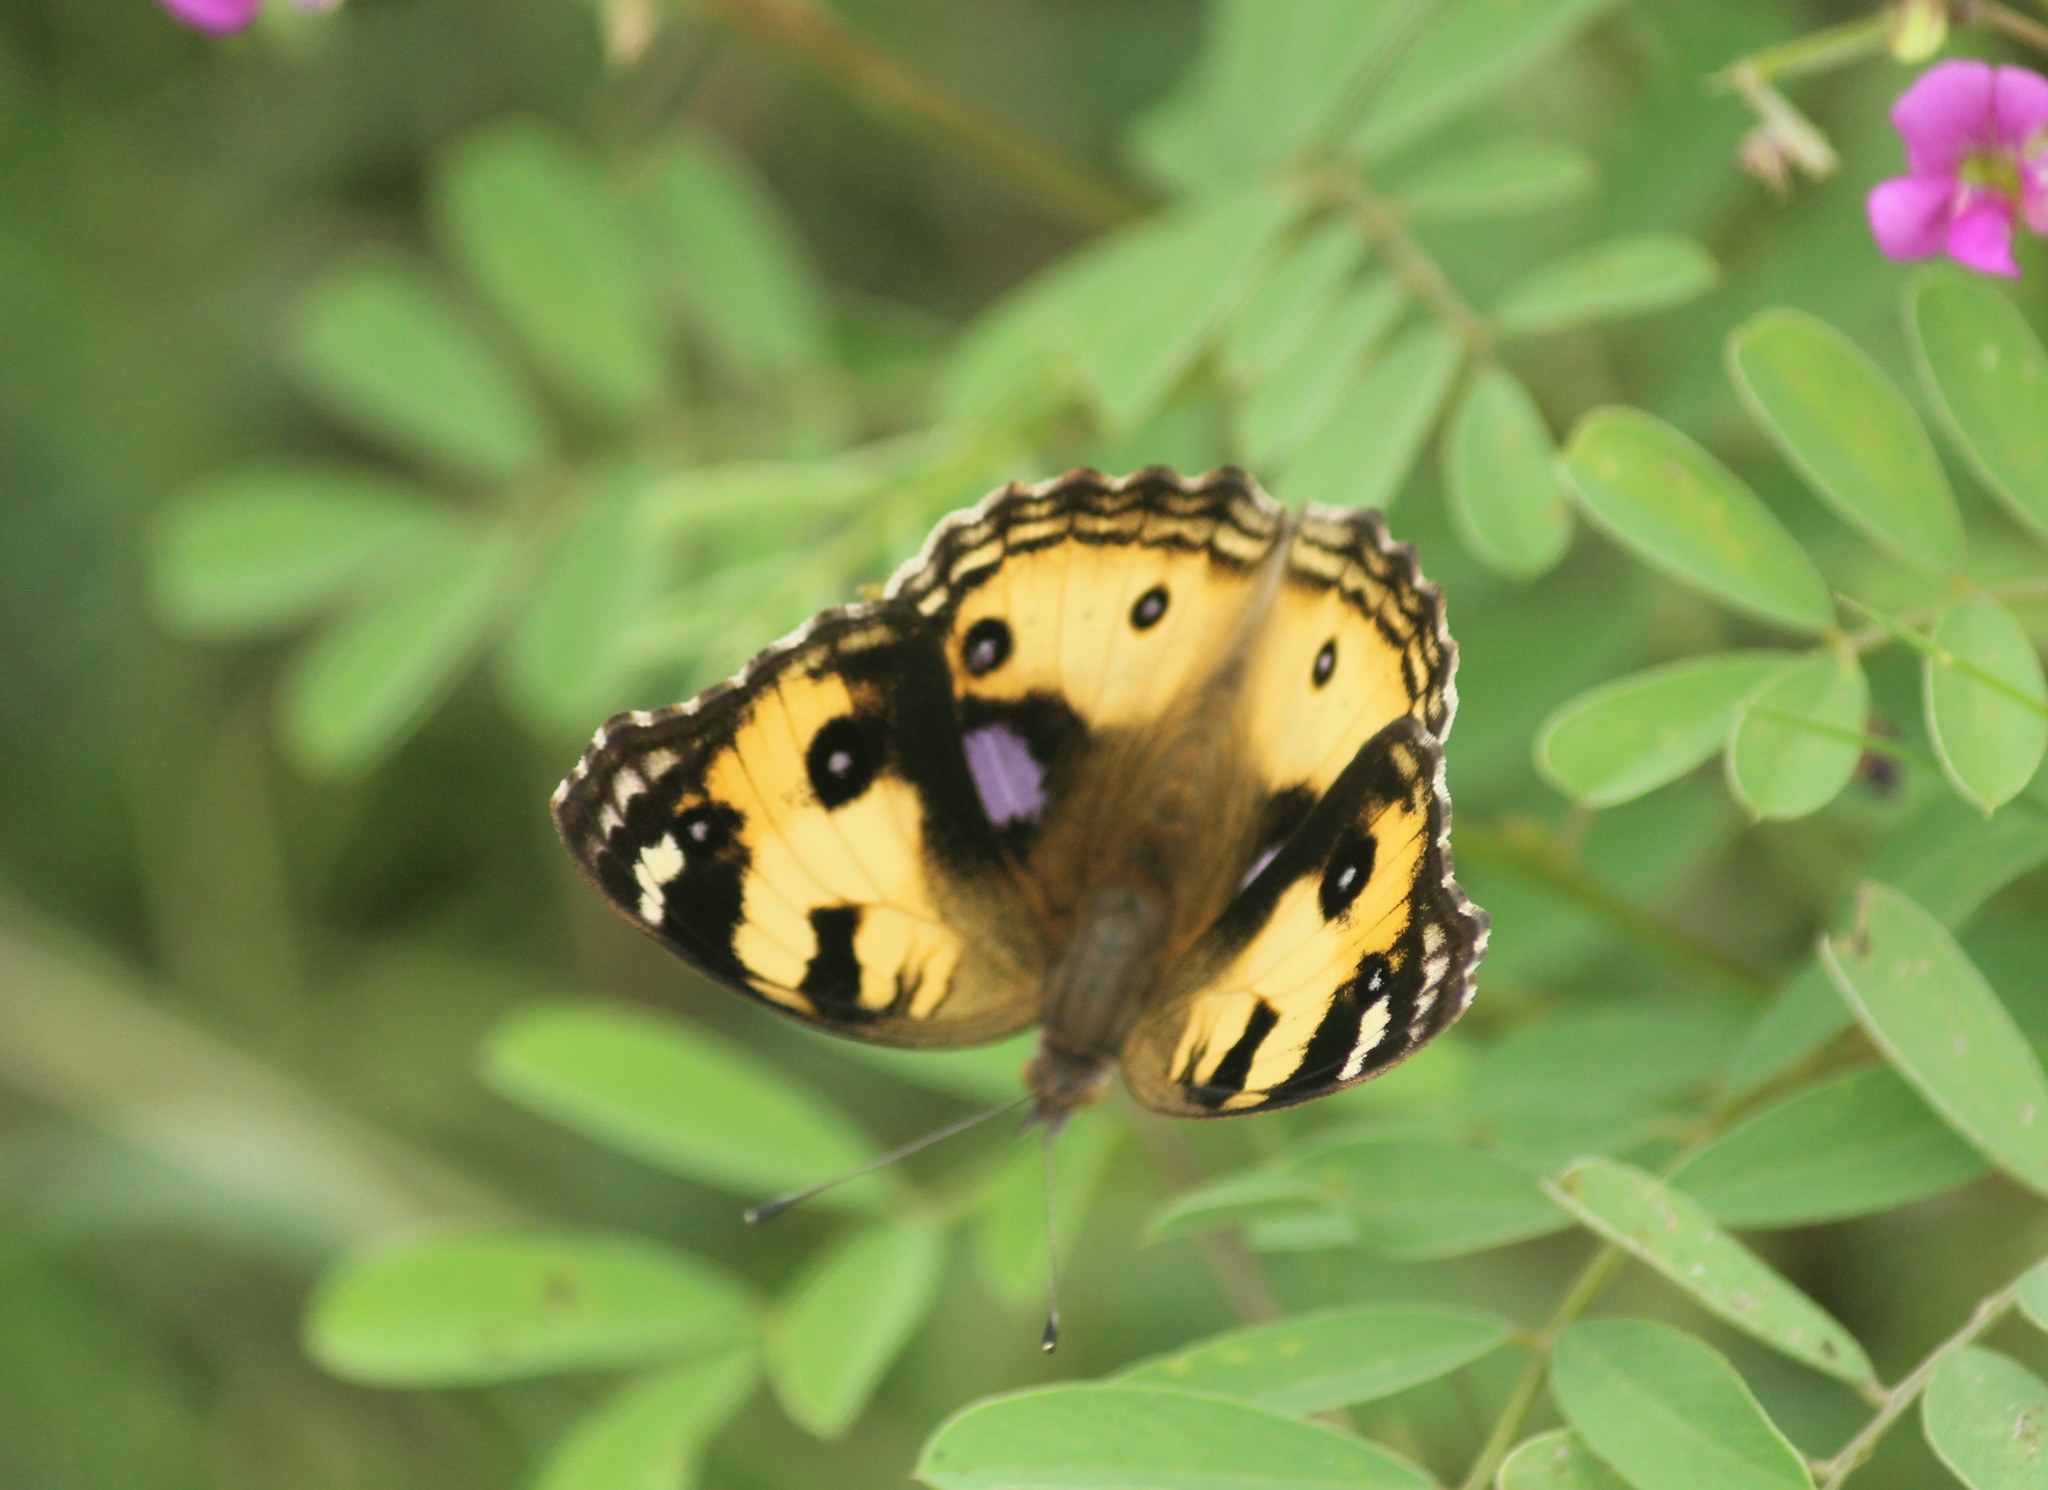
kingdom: Animalia
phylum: Arthropoda
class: Insecta
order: Lepidoptera
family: Nymphalidae
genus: Junonia
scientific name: Junonia hierta
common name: Yellow pansy
